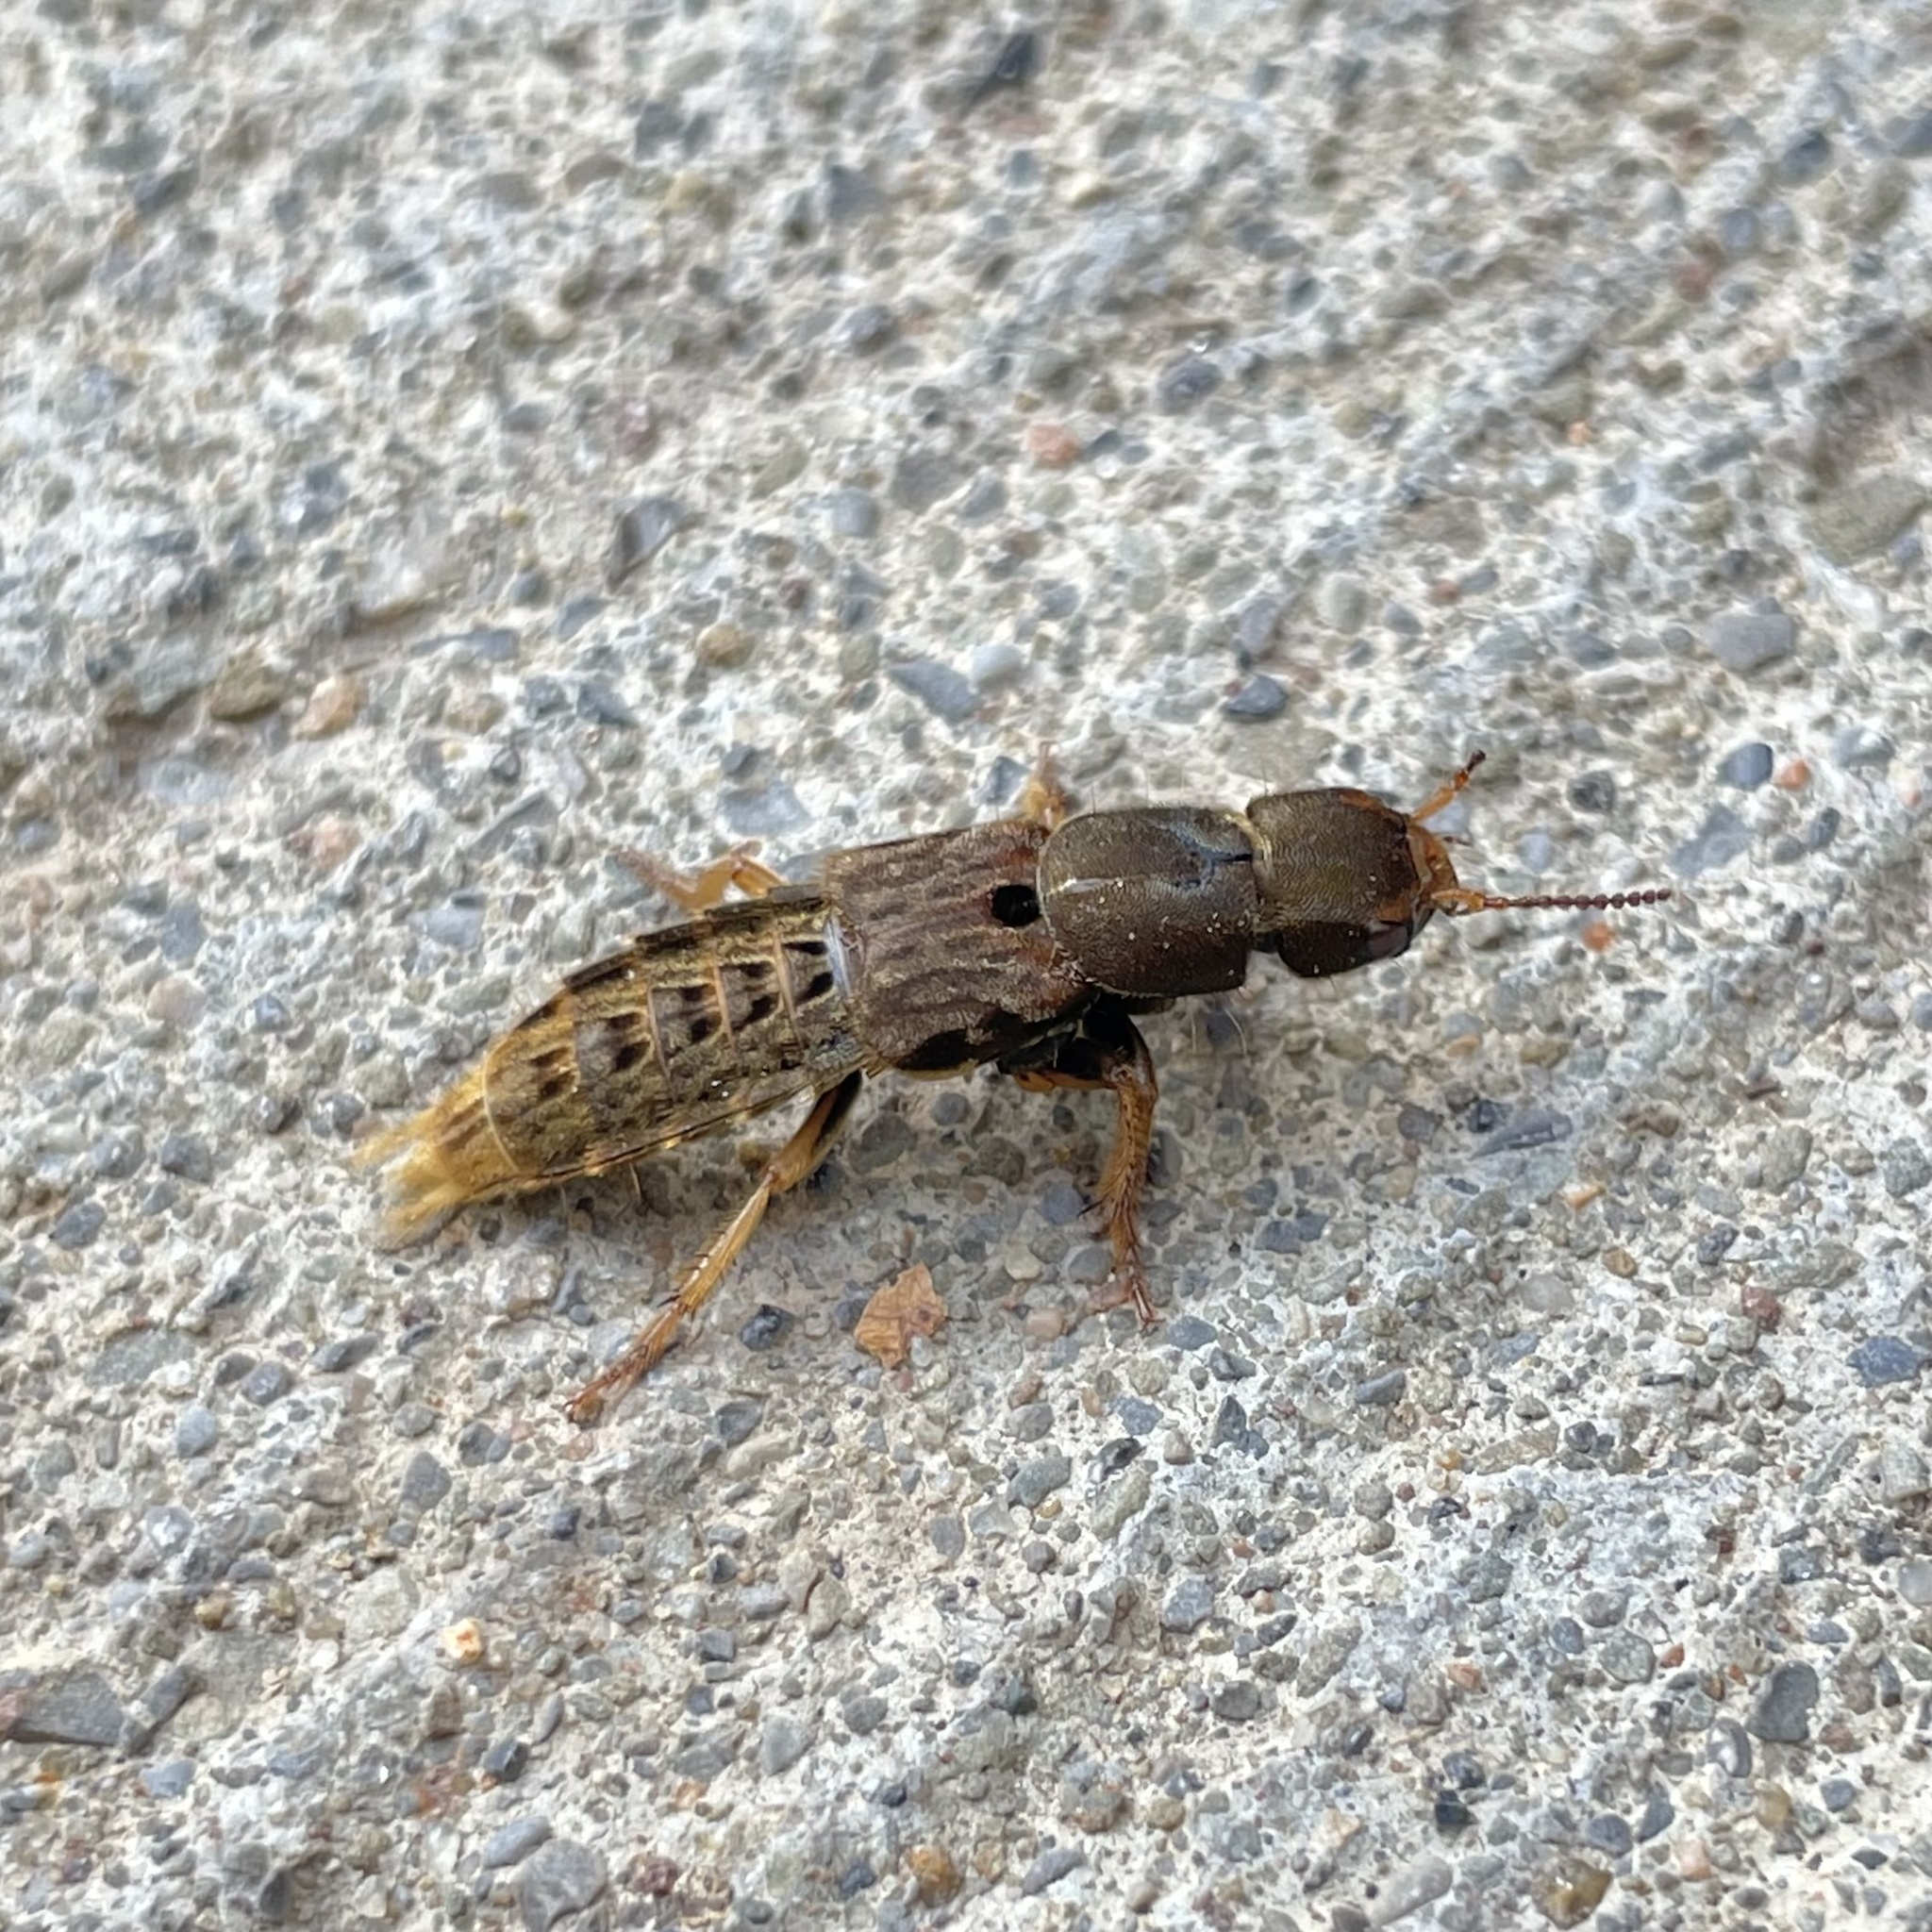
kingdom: Animalia
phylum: Arthropoda
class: Insecta
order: Coleoptera
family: Staphylinidae
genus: Platydracus
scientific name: Platydracus maculosus
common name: Brown rove beetle
